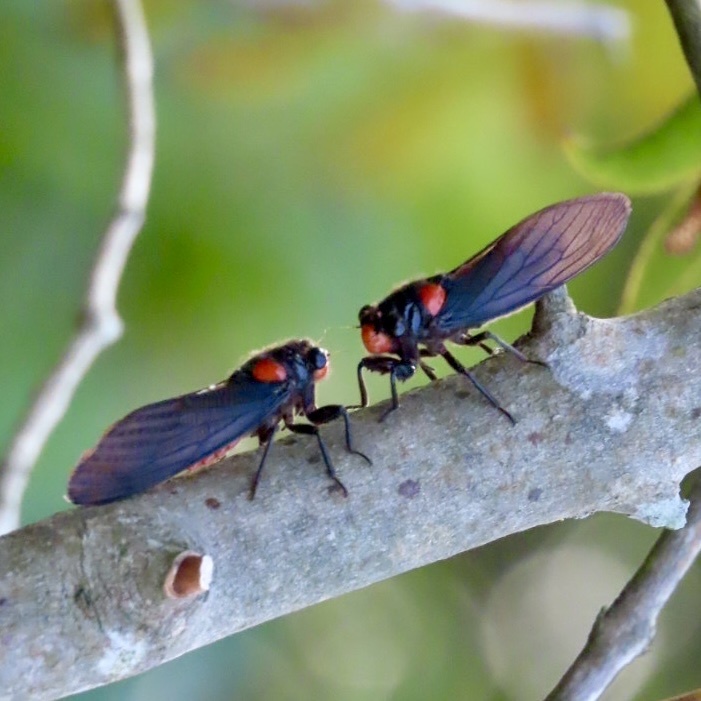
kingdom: Animalia
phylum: Arthropoda
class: Insecta
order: Hemiptera
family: Cicadidae
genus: Huechys
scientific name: Huechys sanguinea
